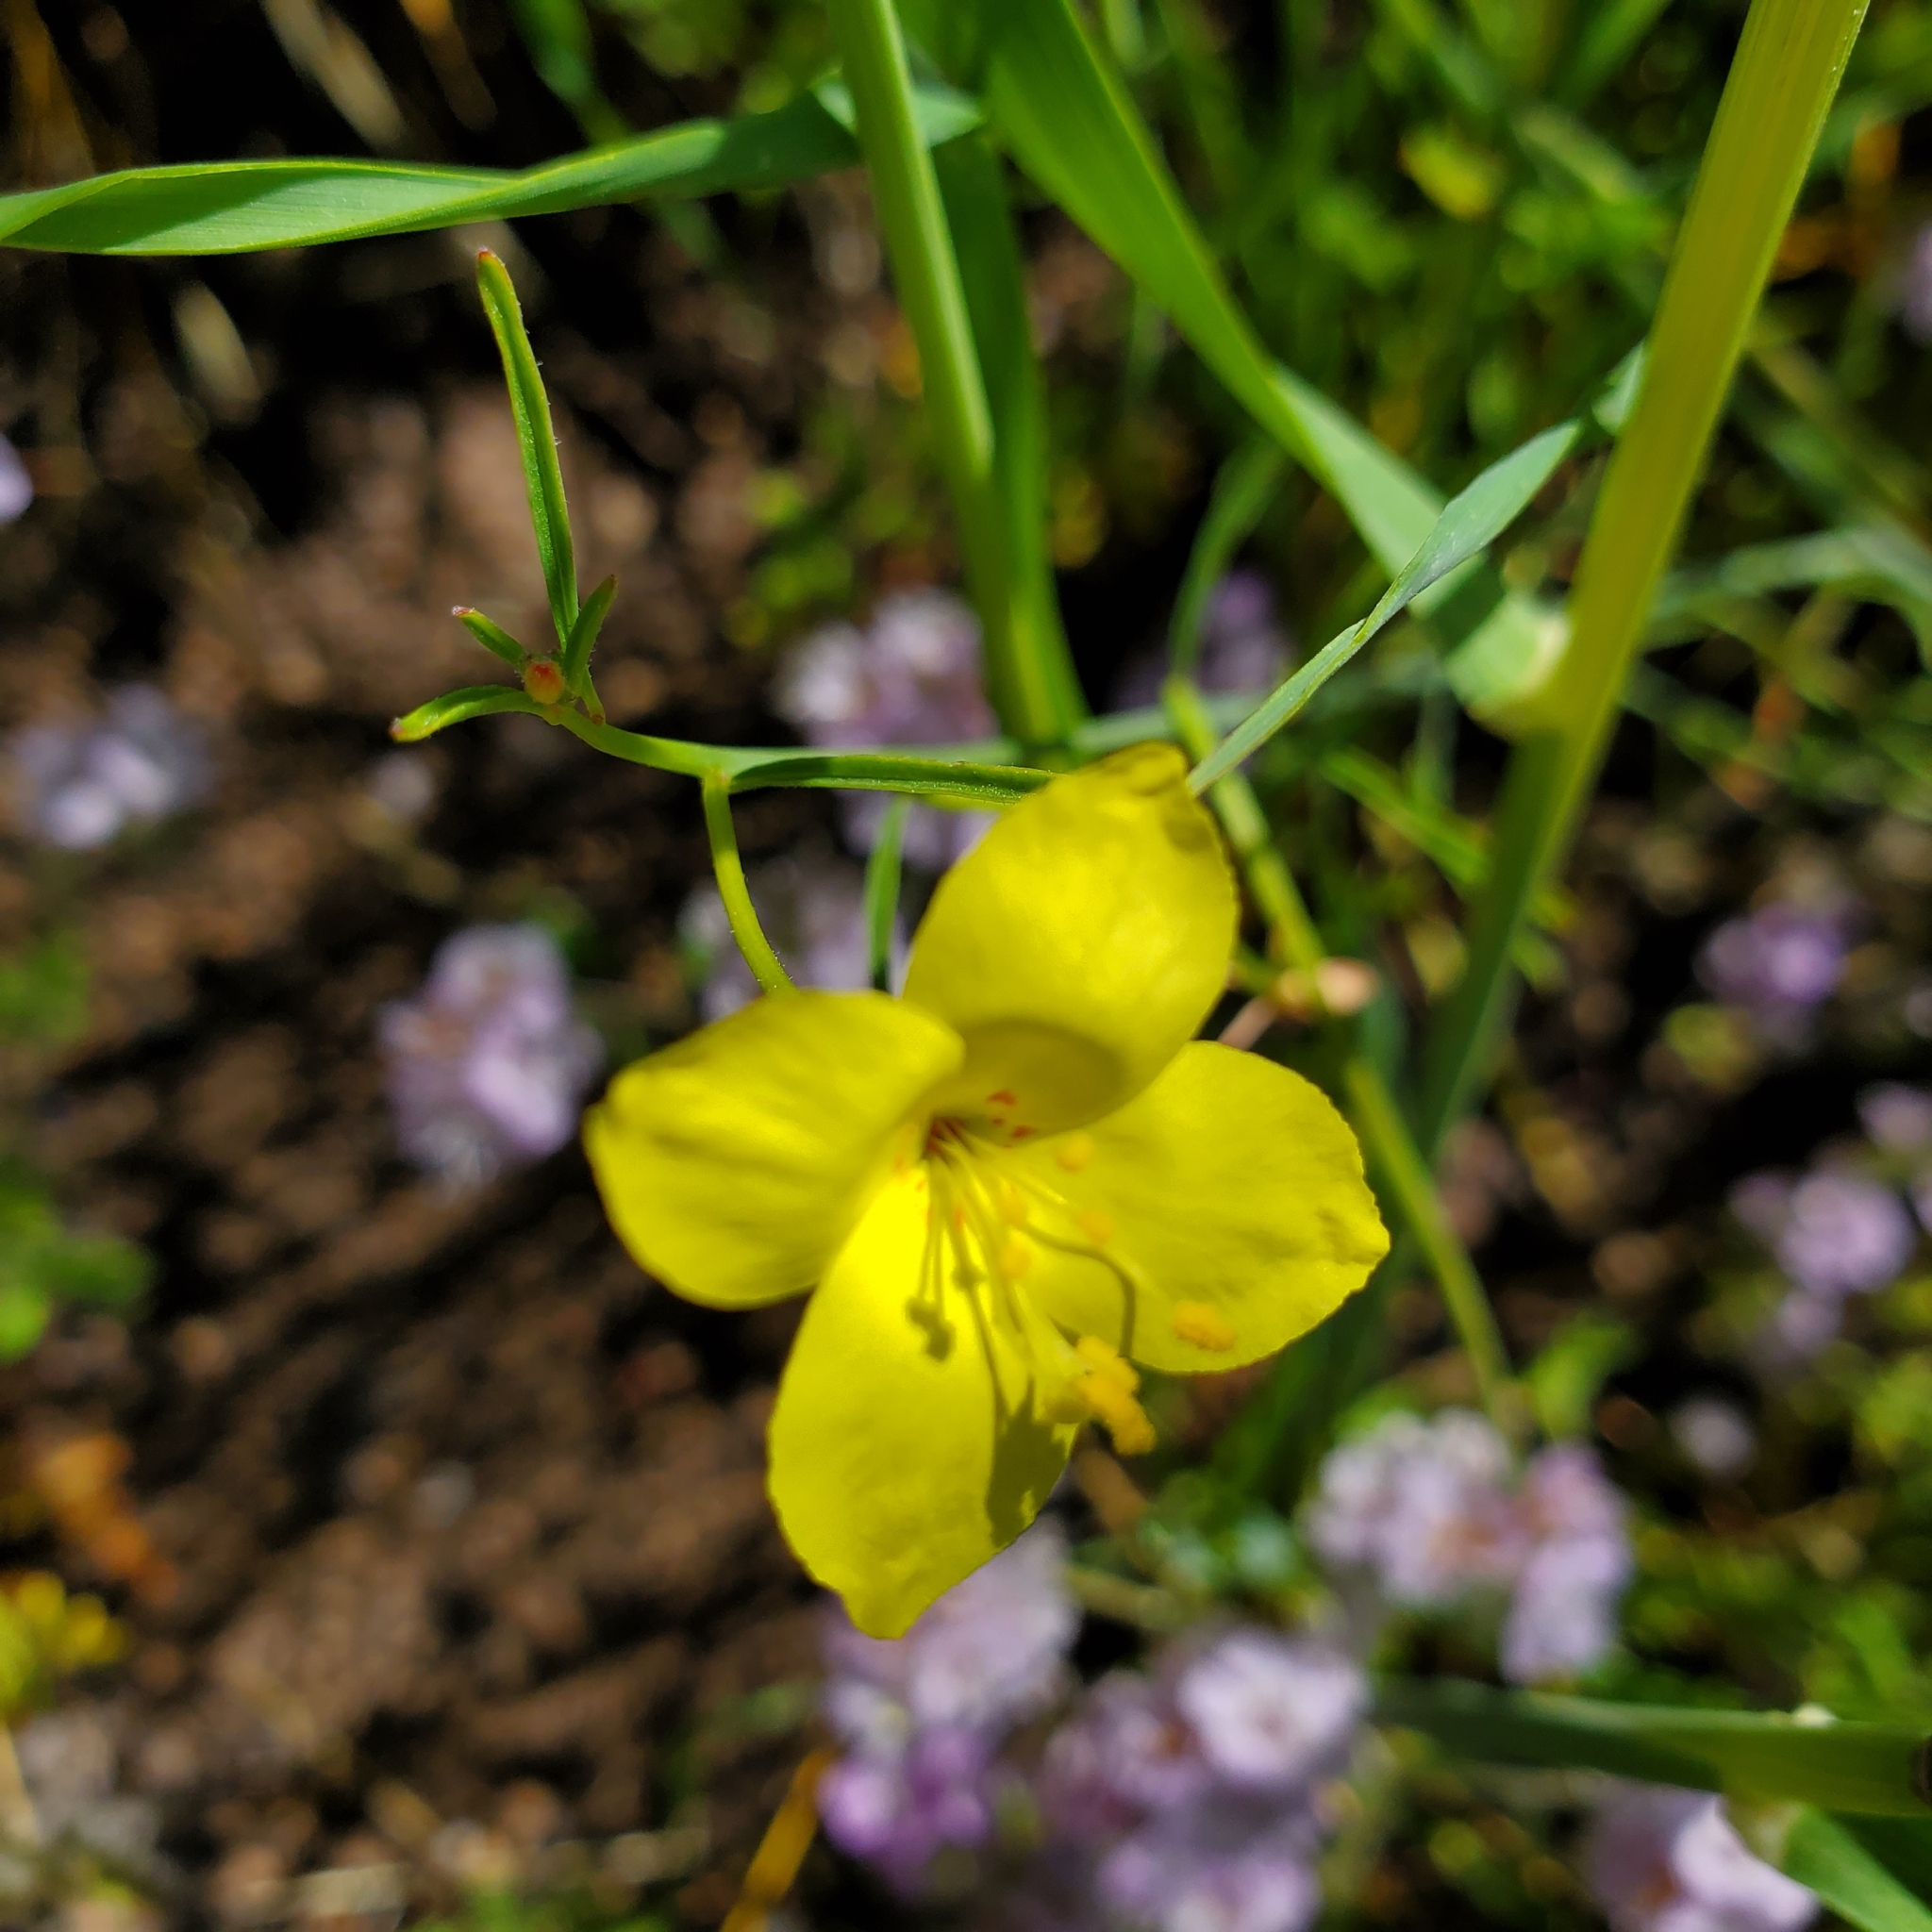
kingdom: Plantae
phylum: Tracheophyta
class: Magnoliopsida
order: Myrtales
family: Onagraceae
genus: Eulobus
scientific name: Eulobus californicus
